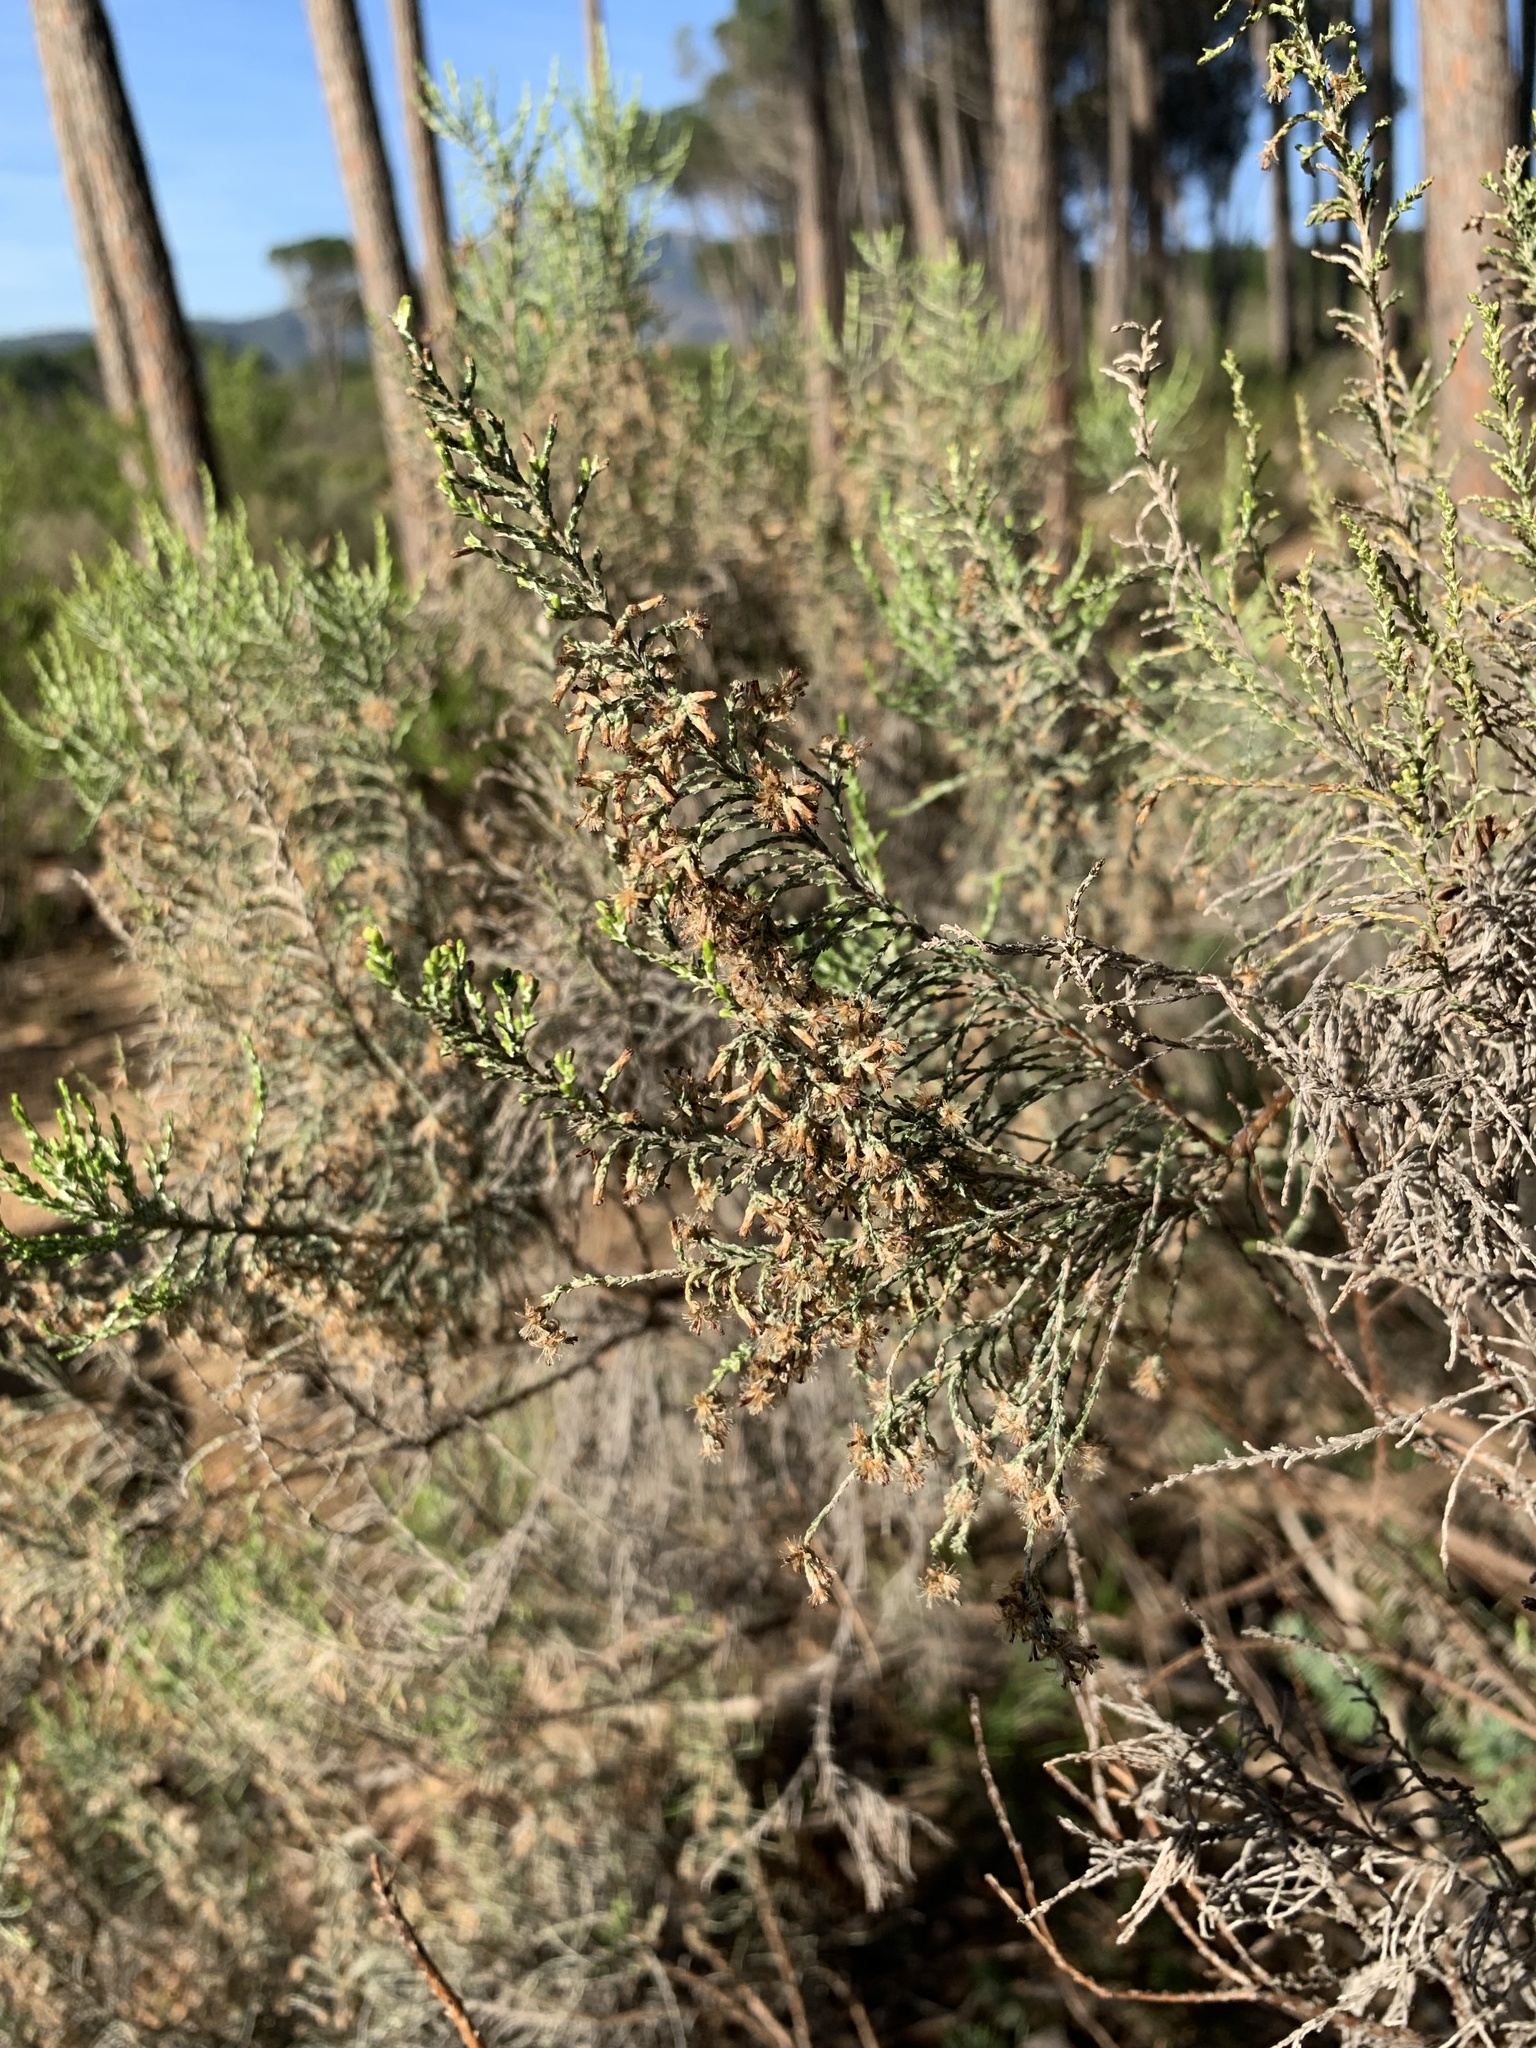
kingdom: Plantae
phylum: Tracheophyta
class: Magnoliopsida
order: Asterales
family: Asteraceae
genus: Dicerothamnus
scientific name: Dicerothamnus rhinocerotis
